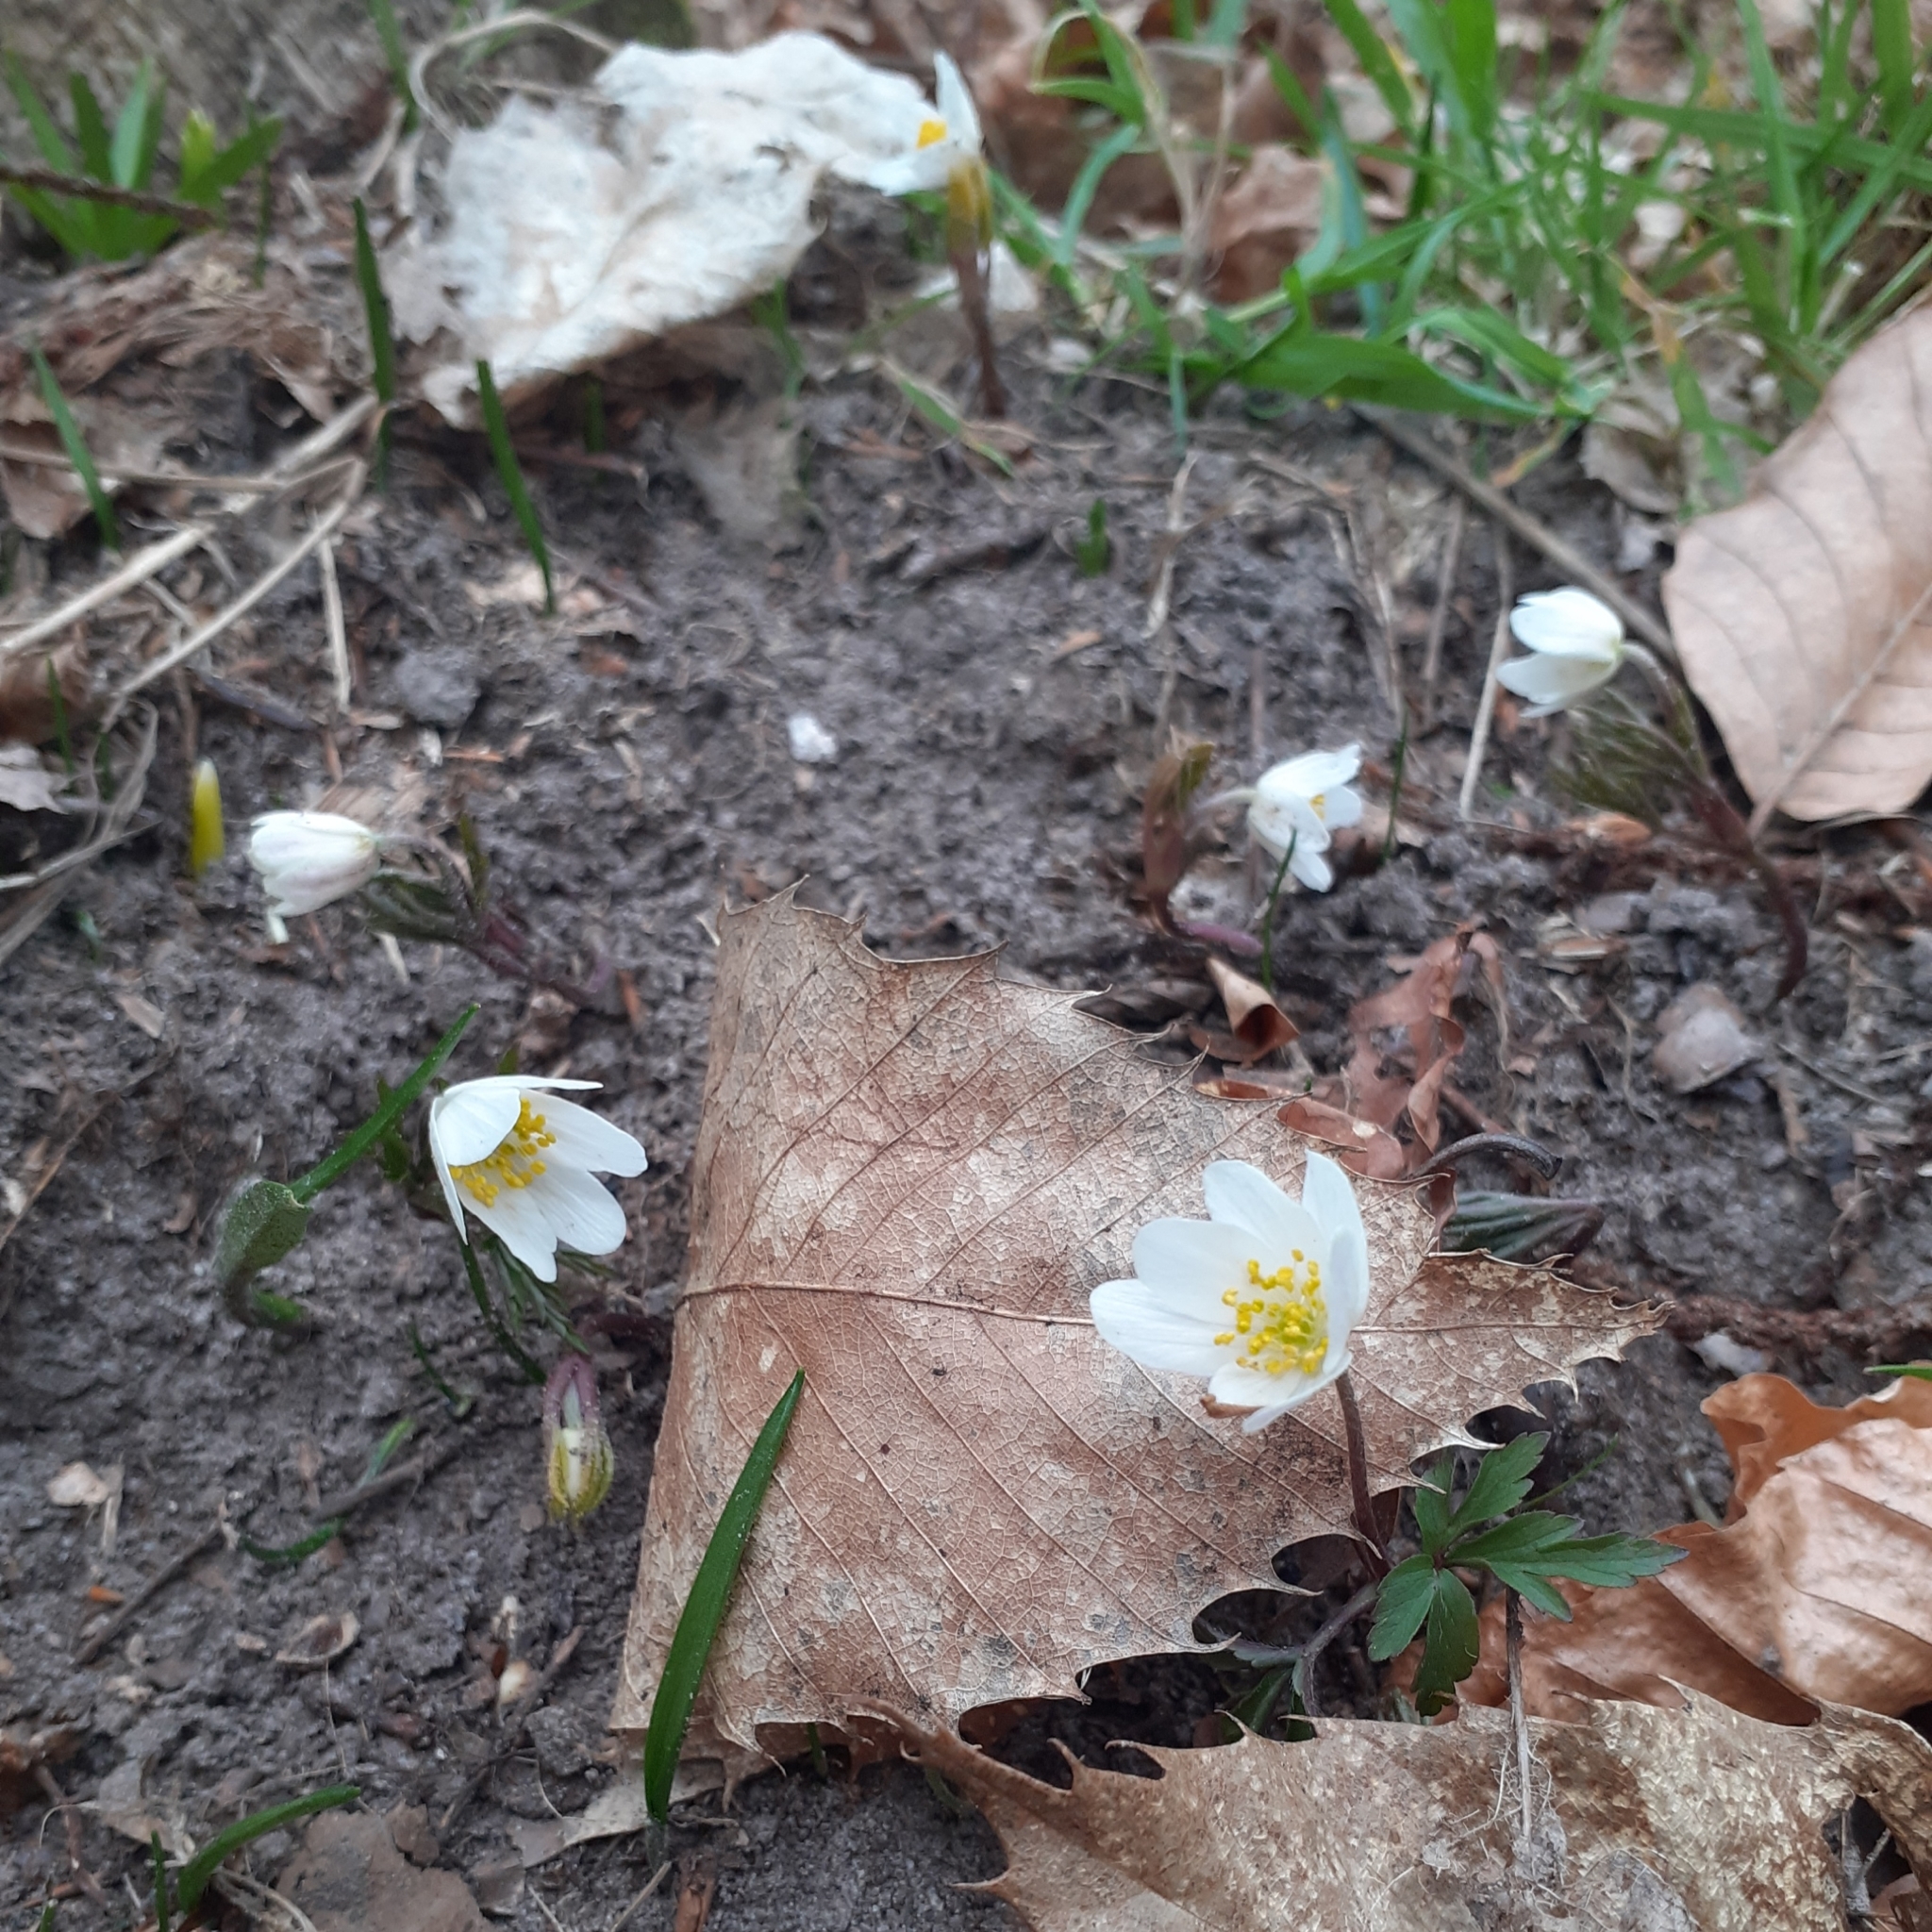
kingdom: Plantae
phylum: Tracheophyta
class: Magnoliopsida
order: Ranunculales
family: Ranunculaceae
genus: Anemone
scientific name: Anemone nemorosa
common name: Wood anemone
